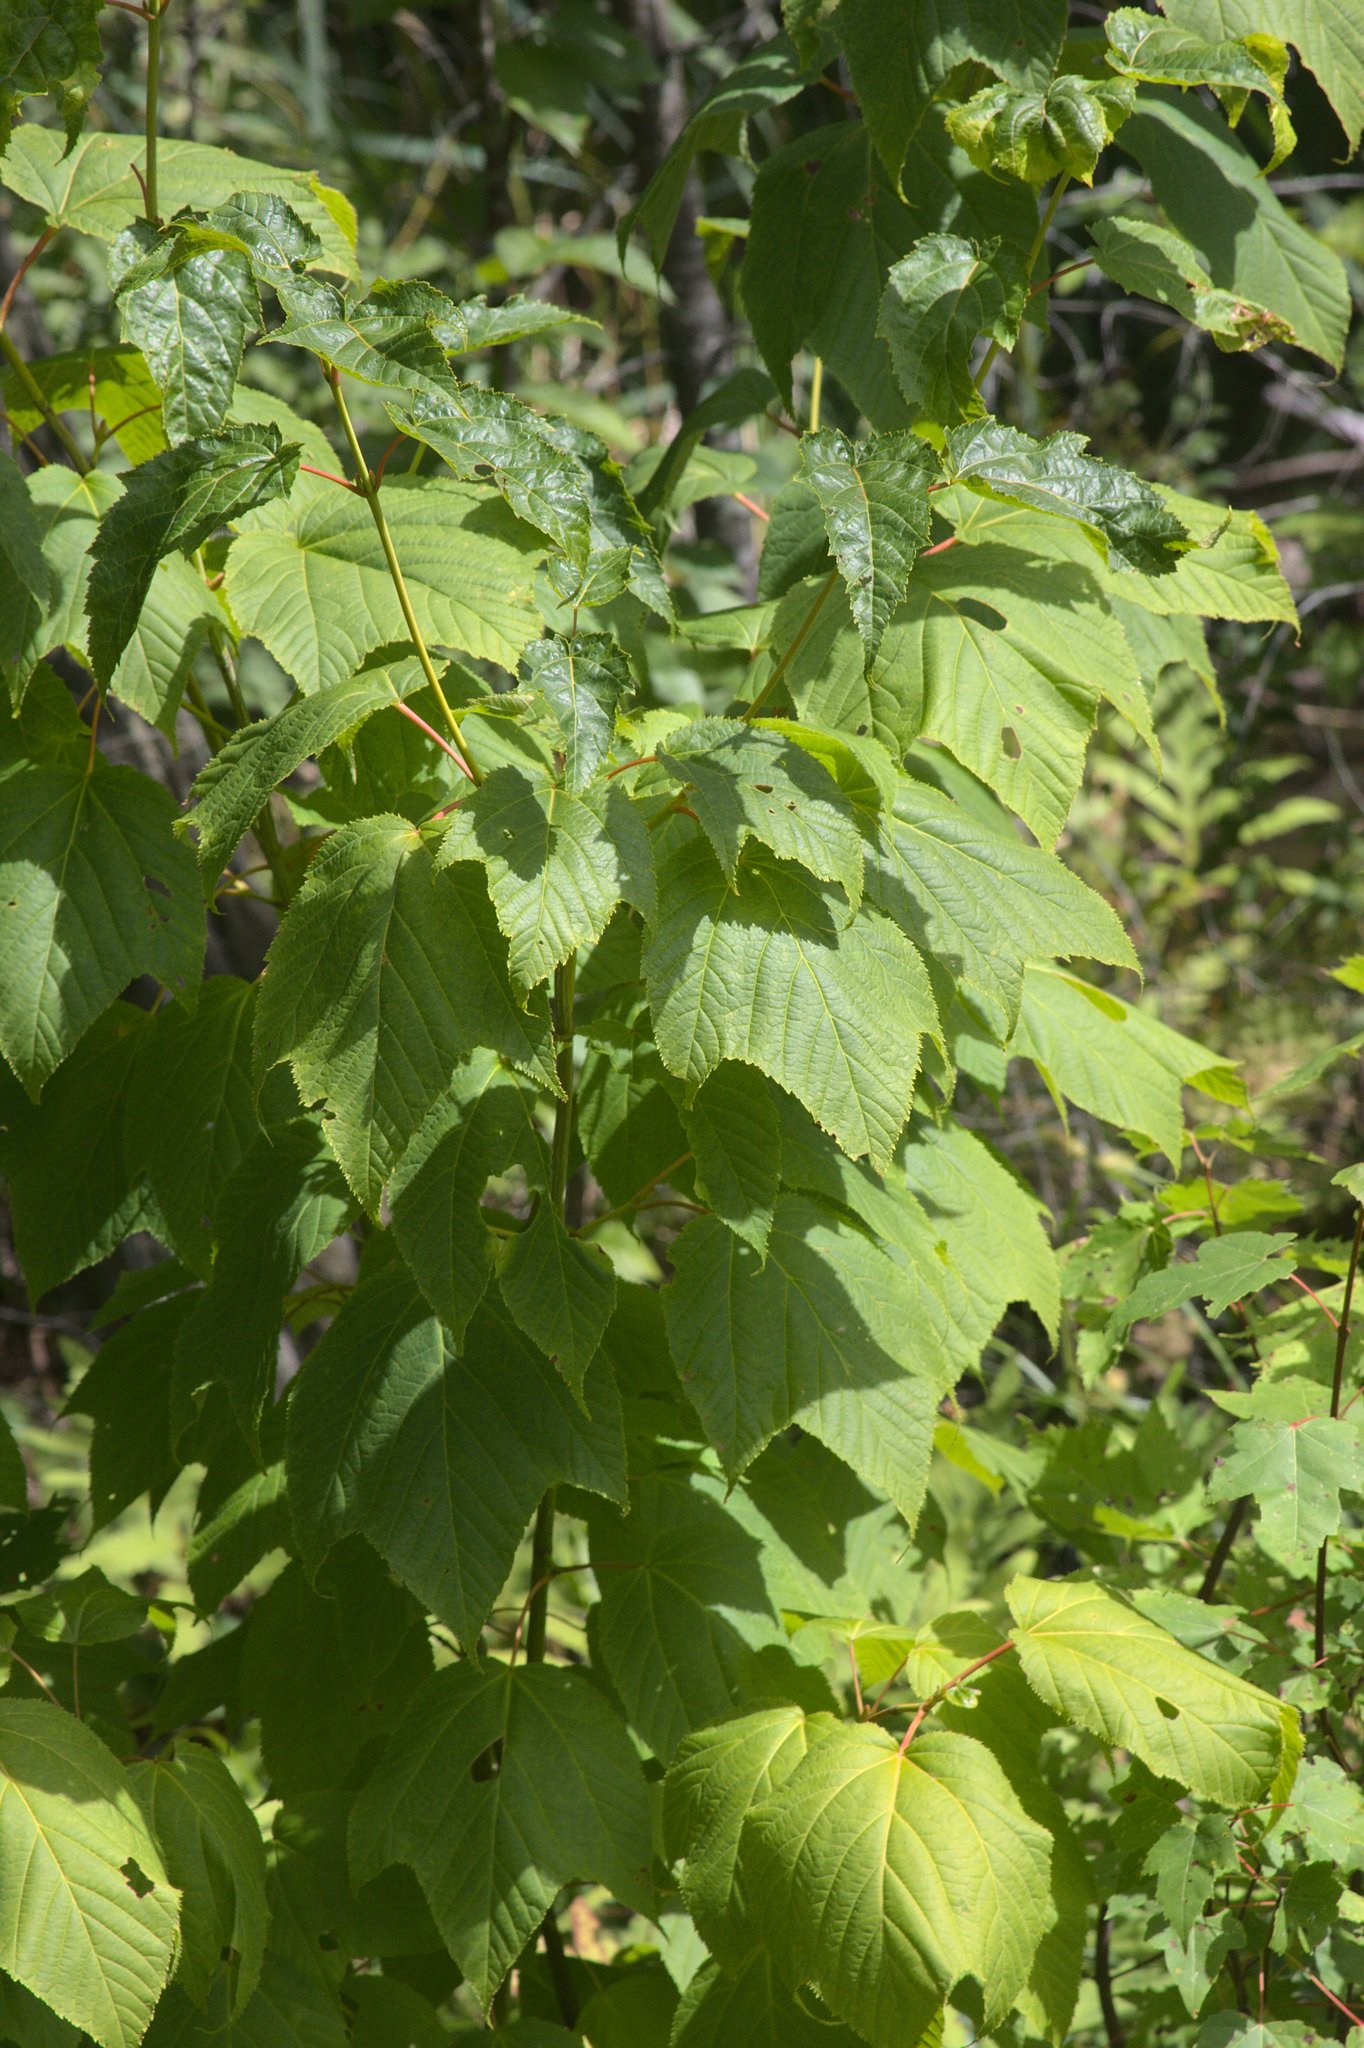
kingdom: Plantae
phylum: Tracheophyta
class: Magnoliopsida
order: Sapindales
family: Sapindaceae
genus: Acer
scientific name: Acer pensylvanicum
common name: Moosewood
